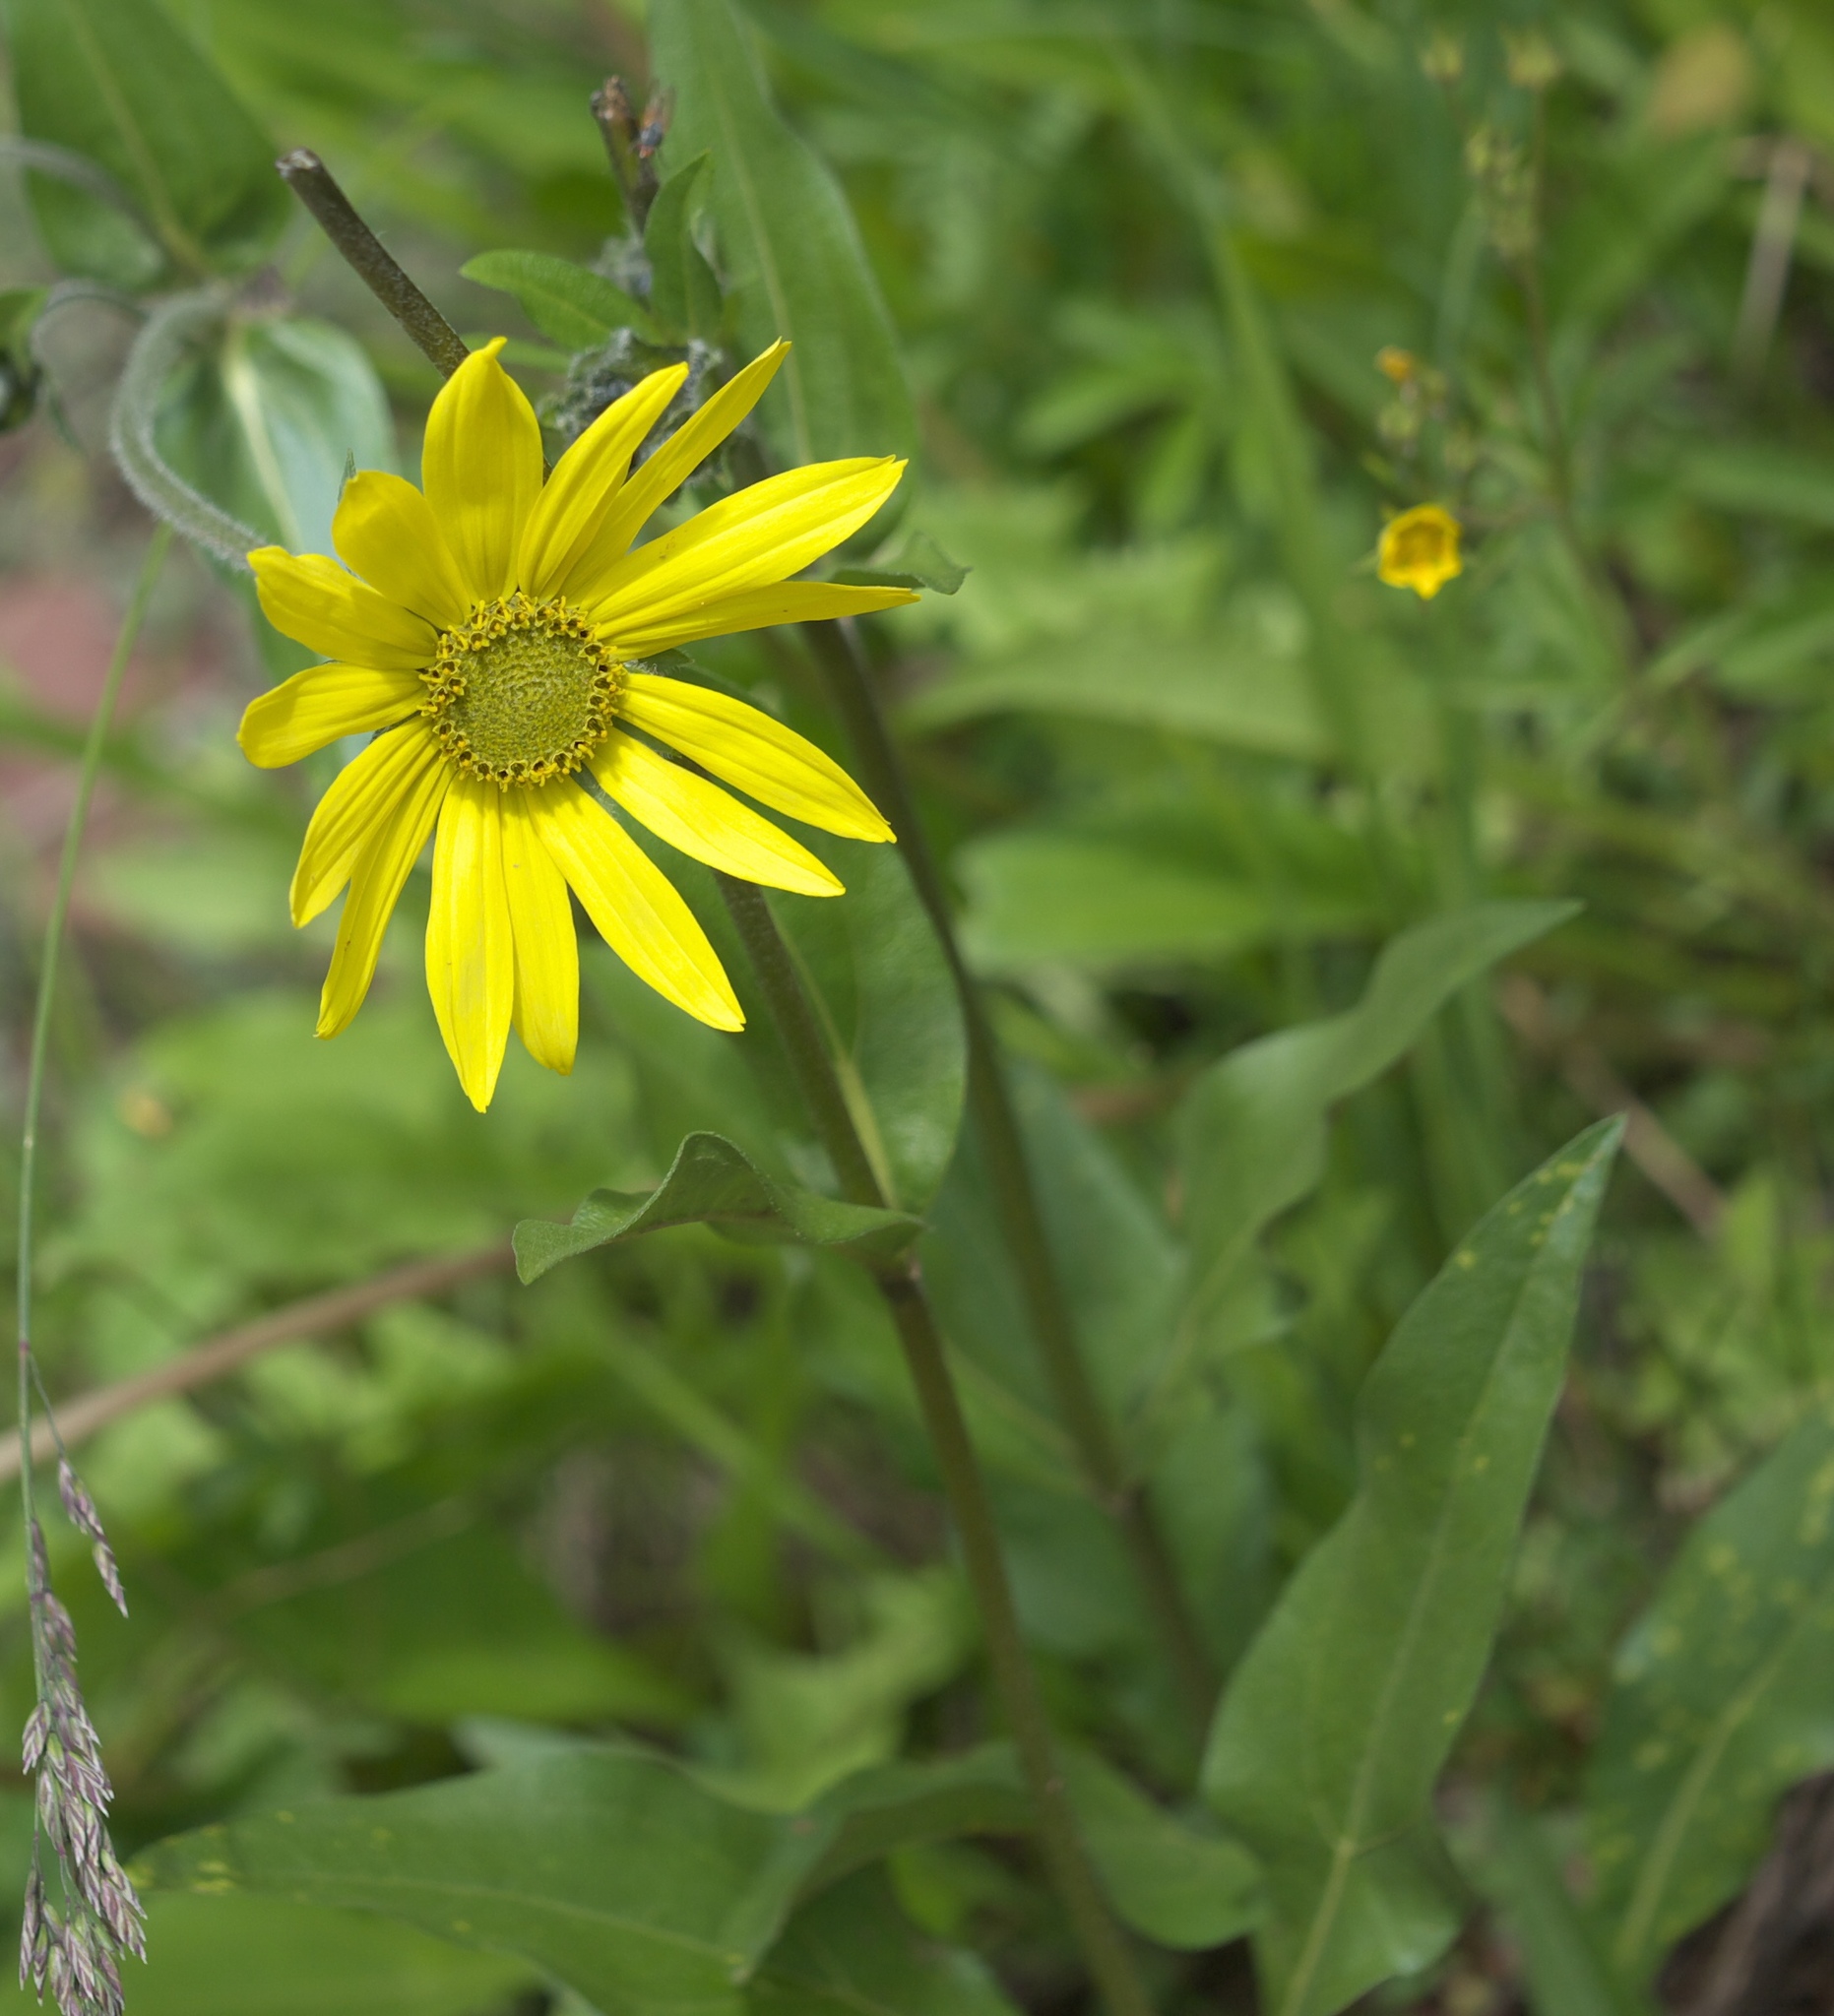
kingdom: Plantae
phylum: Tracheophyta
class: Magnoliopsida
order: Asterales
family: Asteraceae
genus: Helianthella
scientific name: Helianthella quinquenervis
